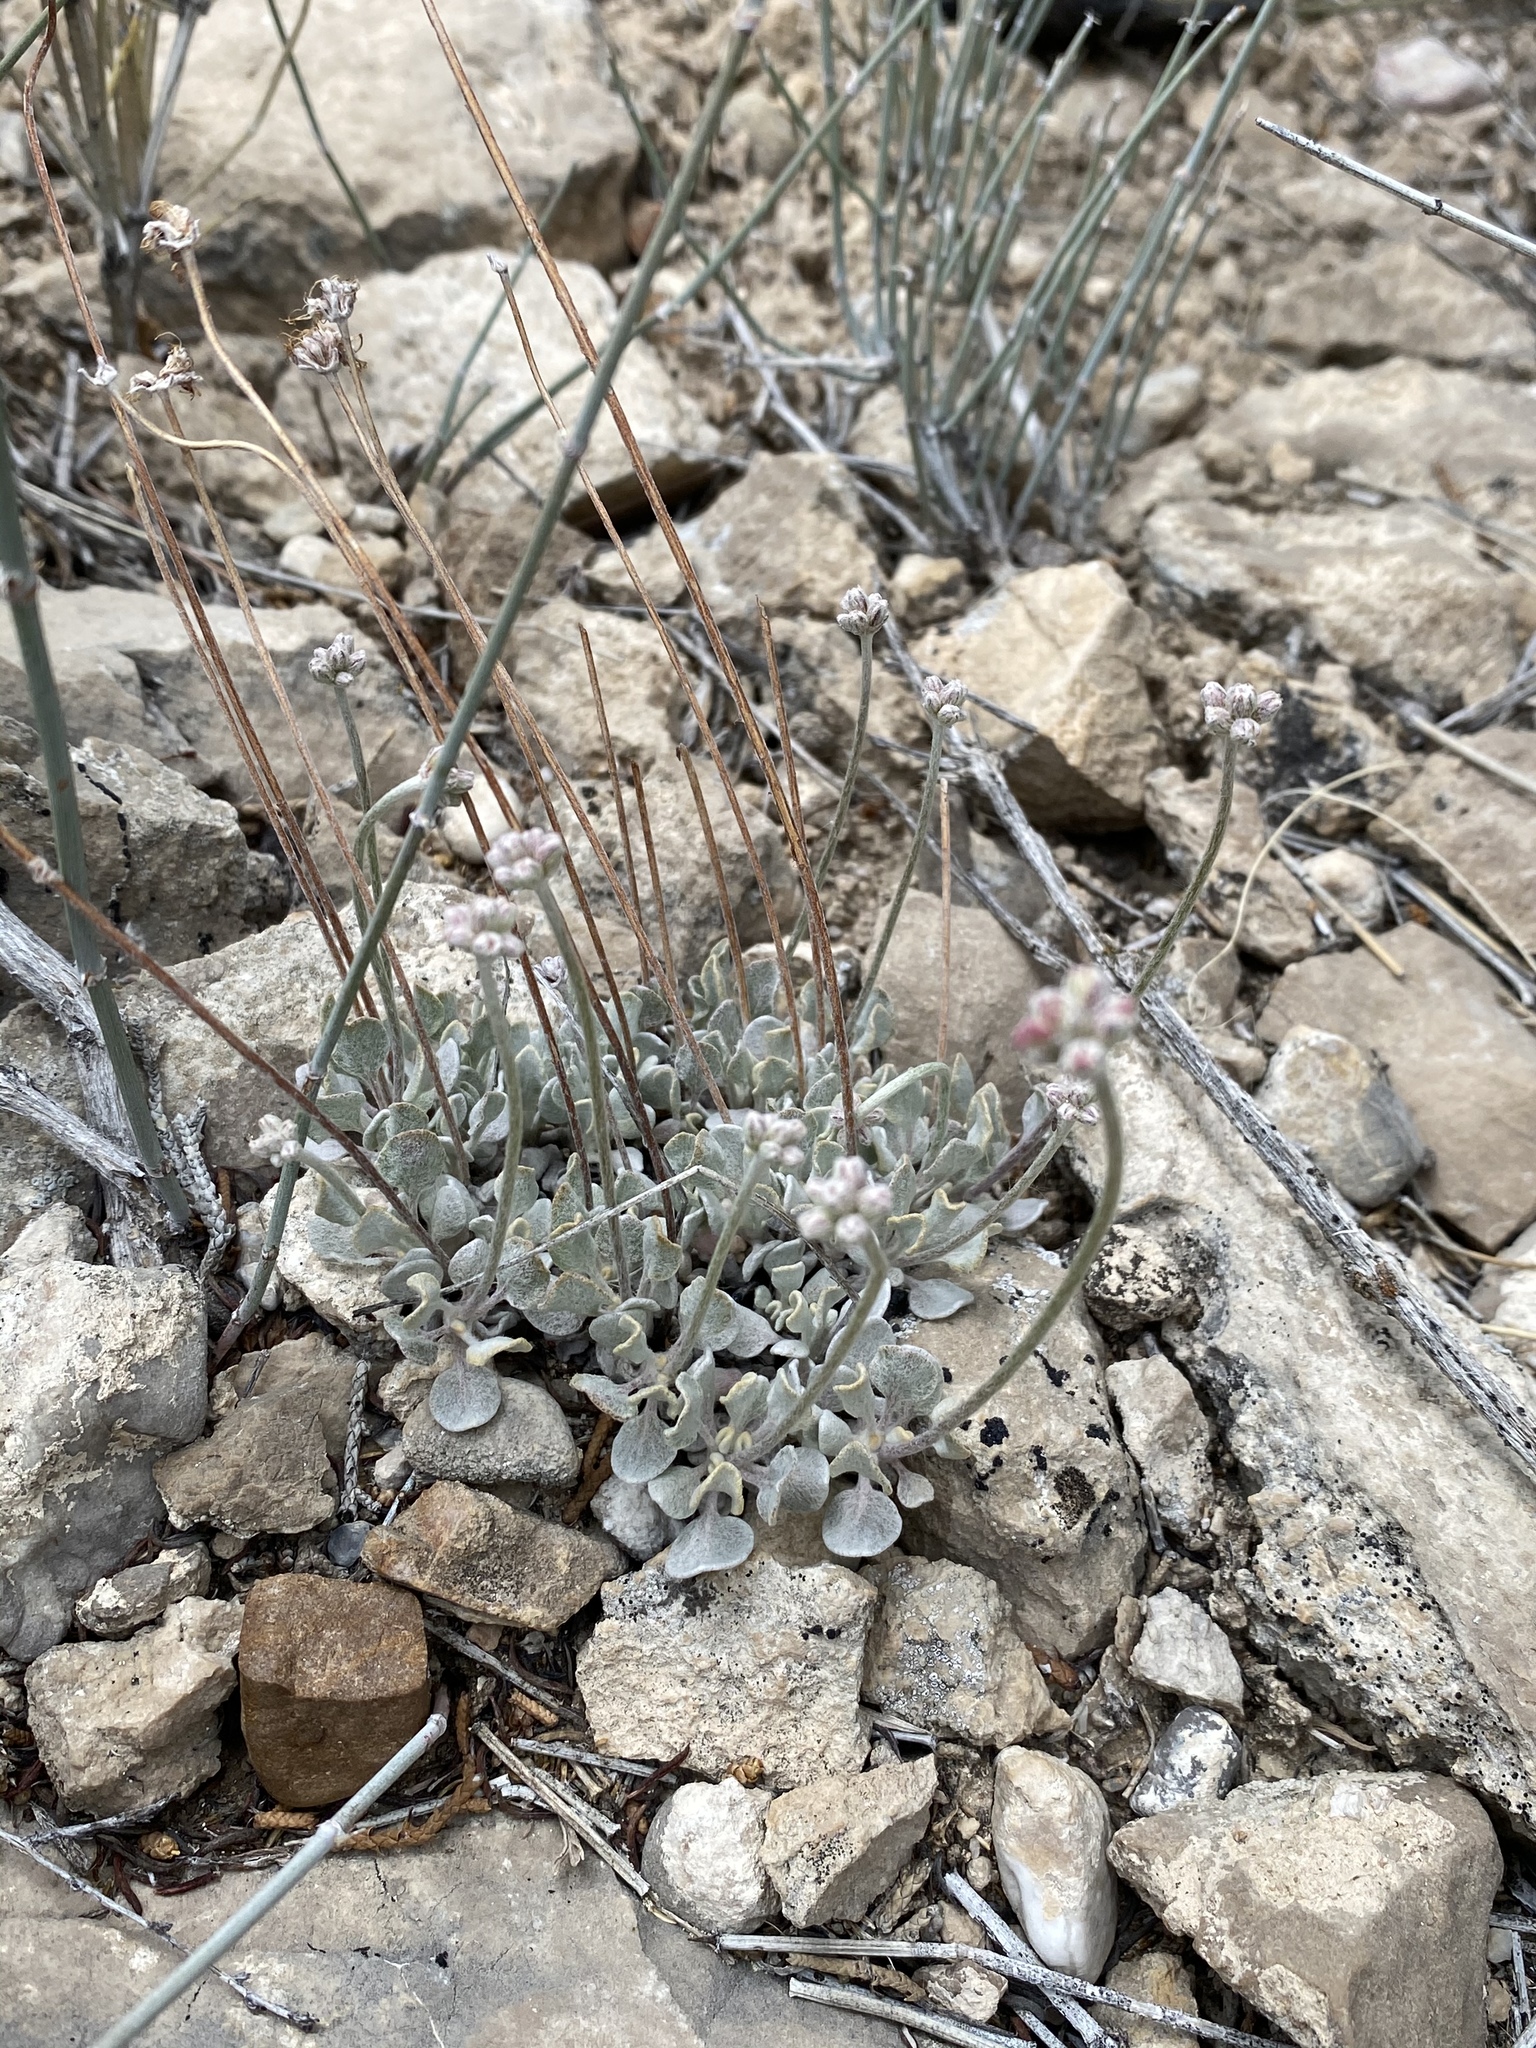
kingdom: Plantae
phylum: Tracheophyta
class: Magnoliopsida
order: Caryophyllales
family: Polygonaceae
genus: Eriogonum
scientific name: Eriogonum ovalifolium
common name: Cushion buckwheat
